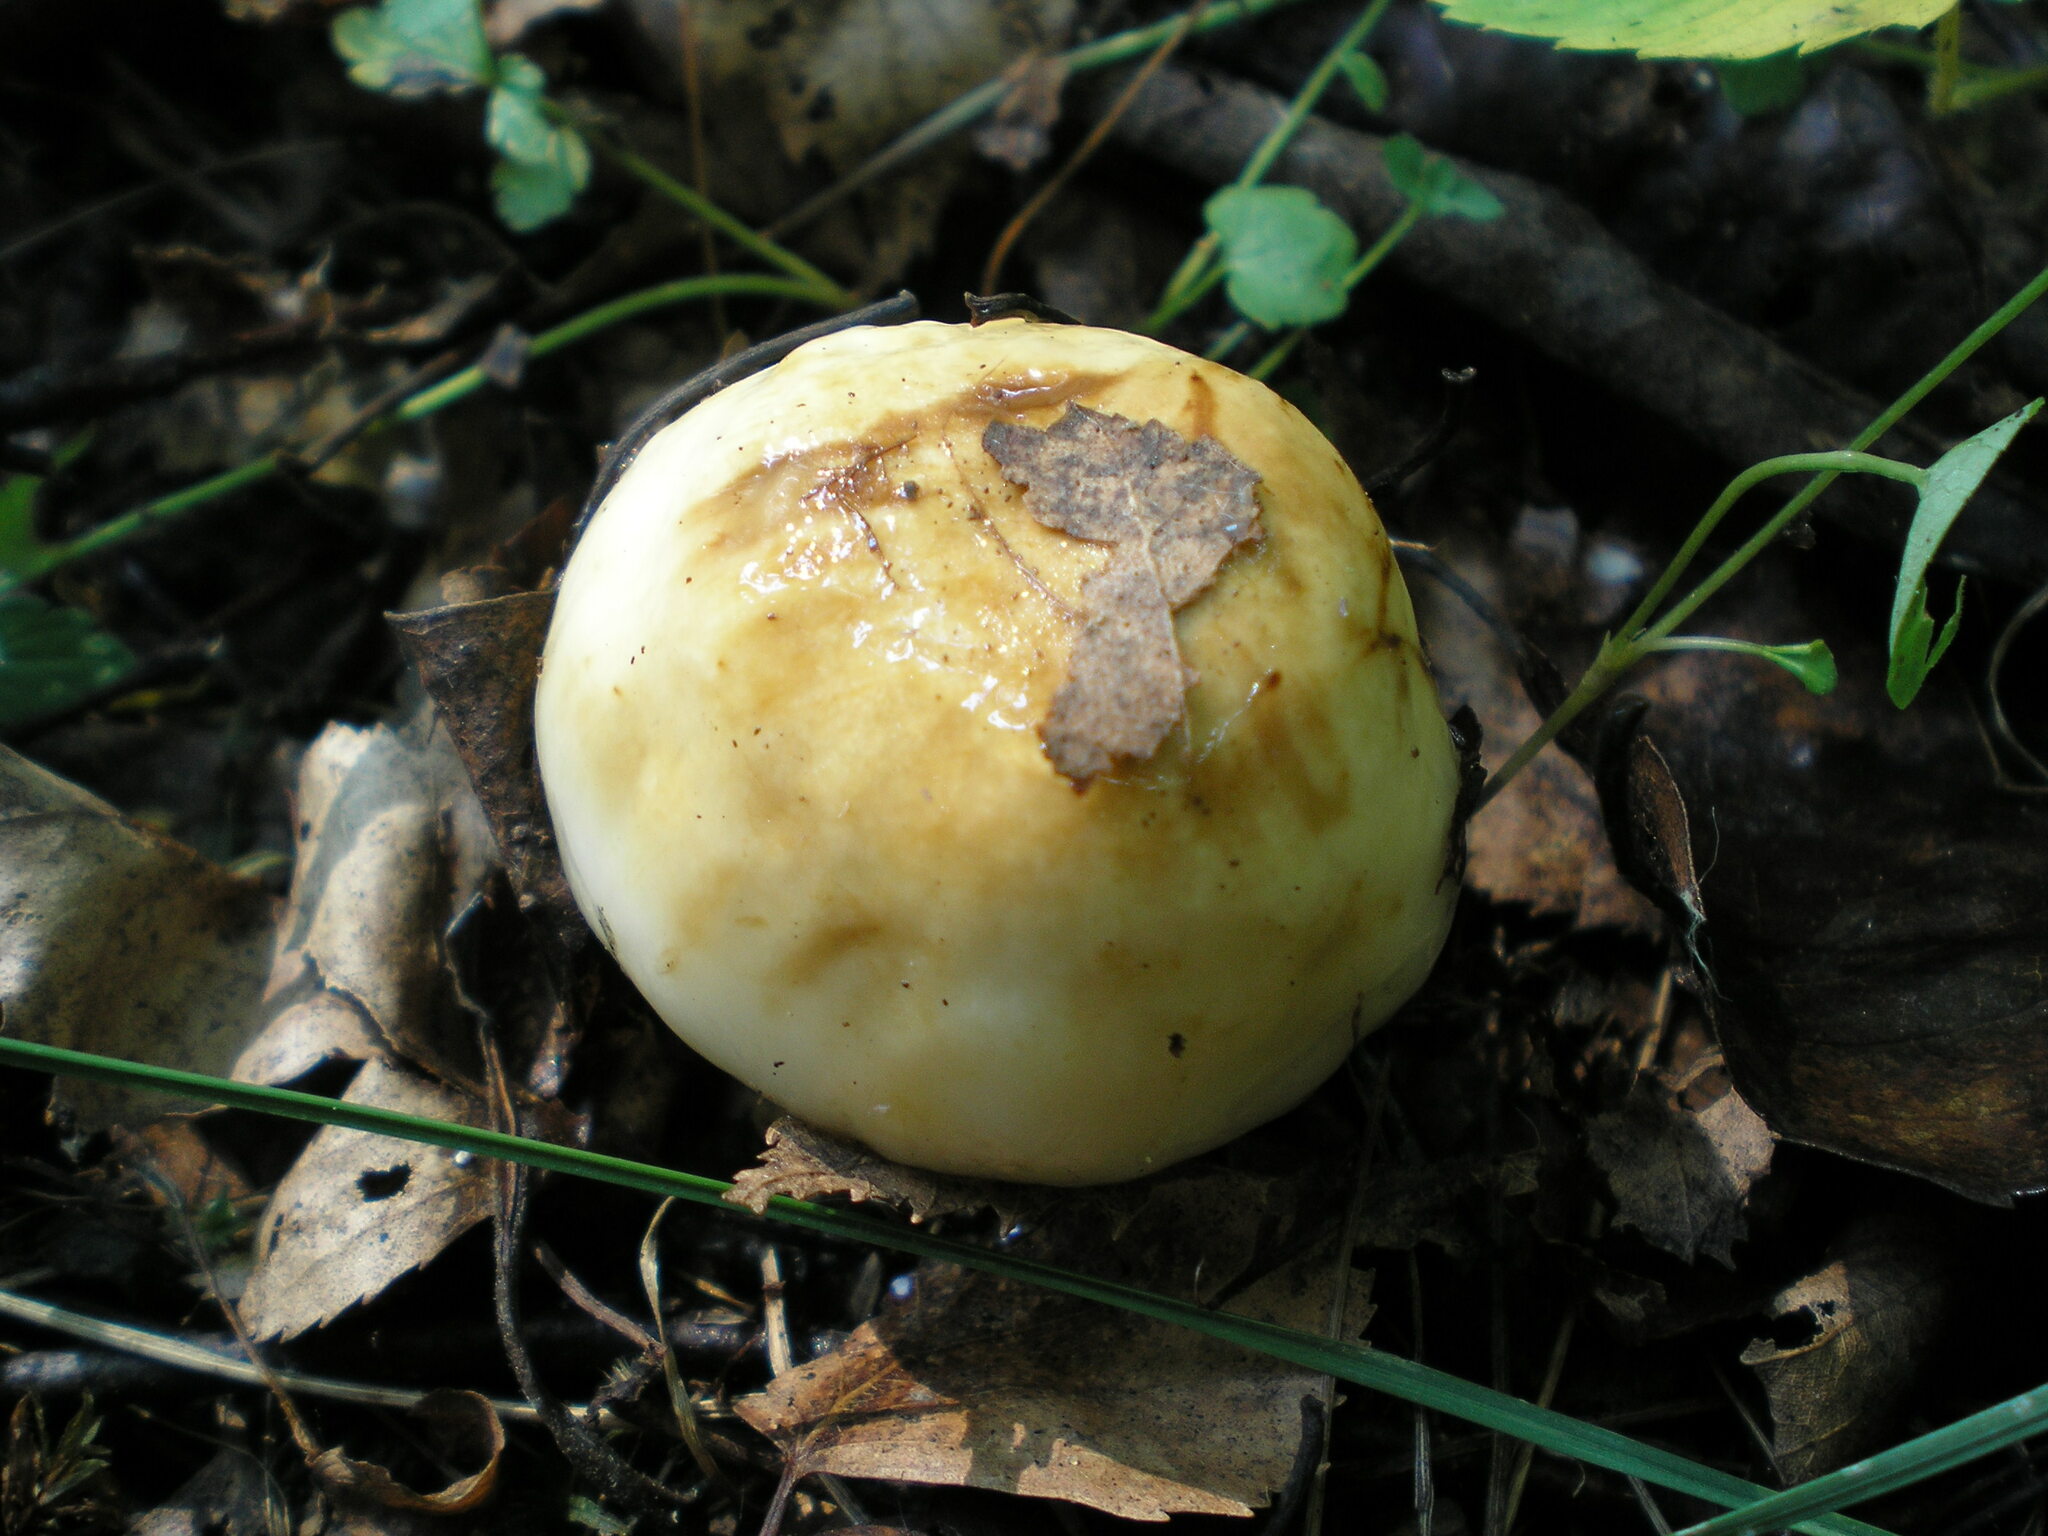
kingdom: Fungi
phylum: Basidiomycota
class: Agaricomycetes
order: Russulales
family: Russulaceae
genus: Russula
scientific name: Russula foetens
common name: Foetid russula
